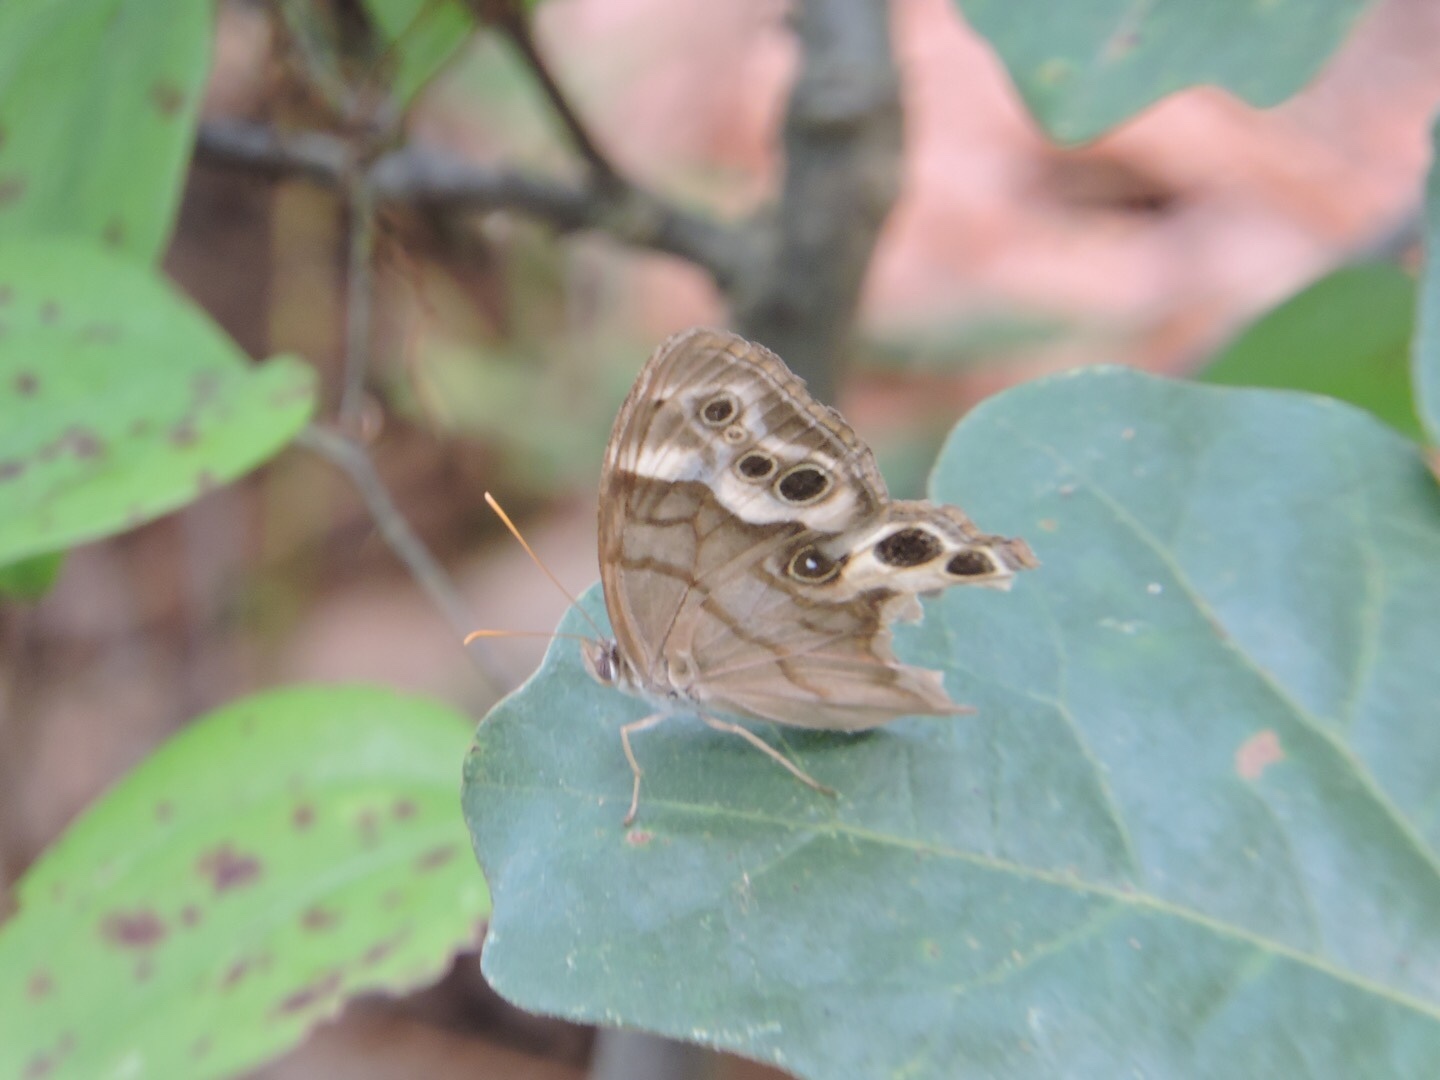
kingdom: Animalia
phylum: Arthropoda
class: Insecta
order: Lepidoptera
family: Nymphalidae
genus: Enodia
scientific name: Enodia portlandia
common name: Southern pearly-eye
